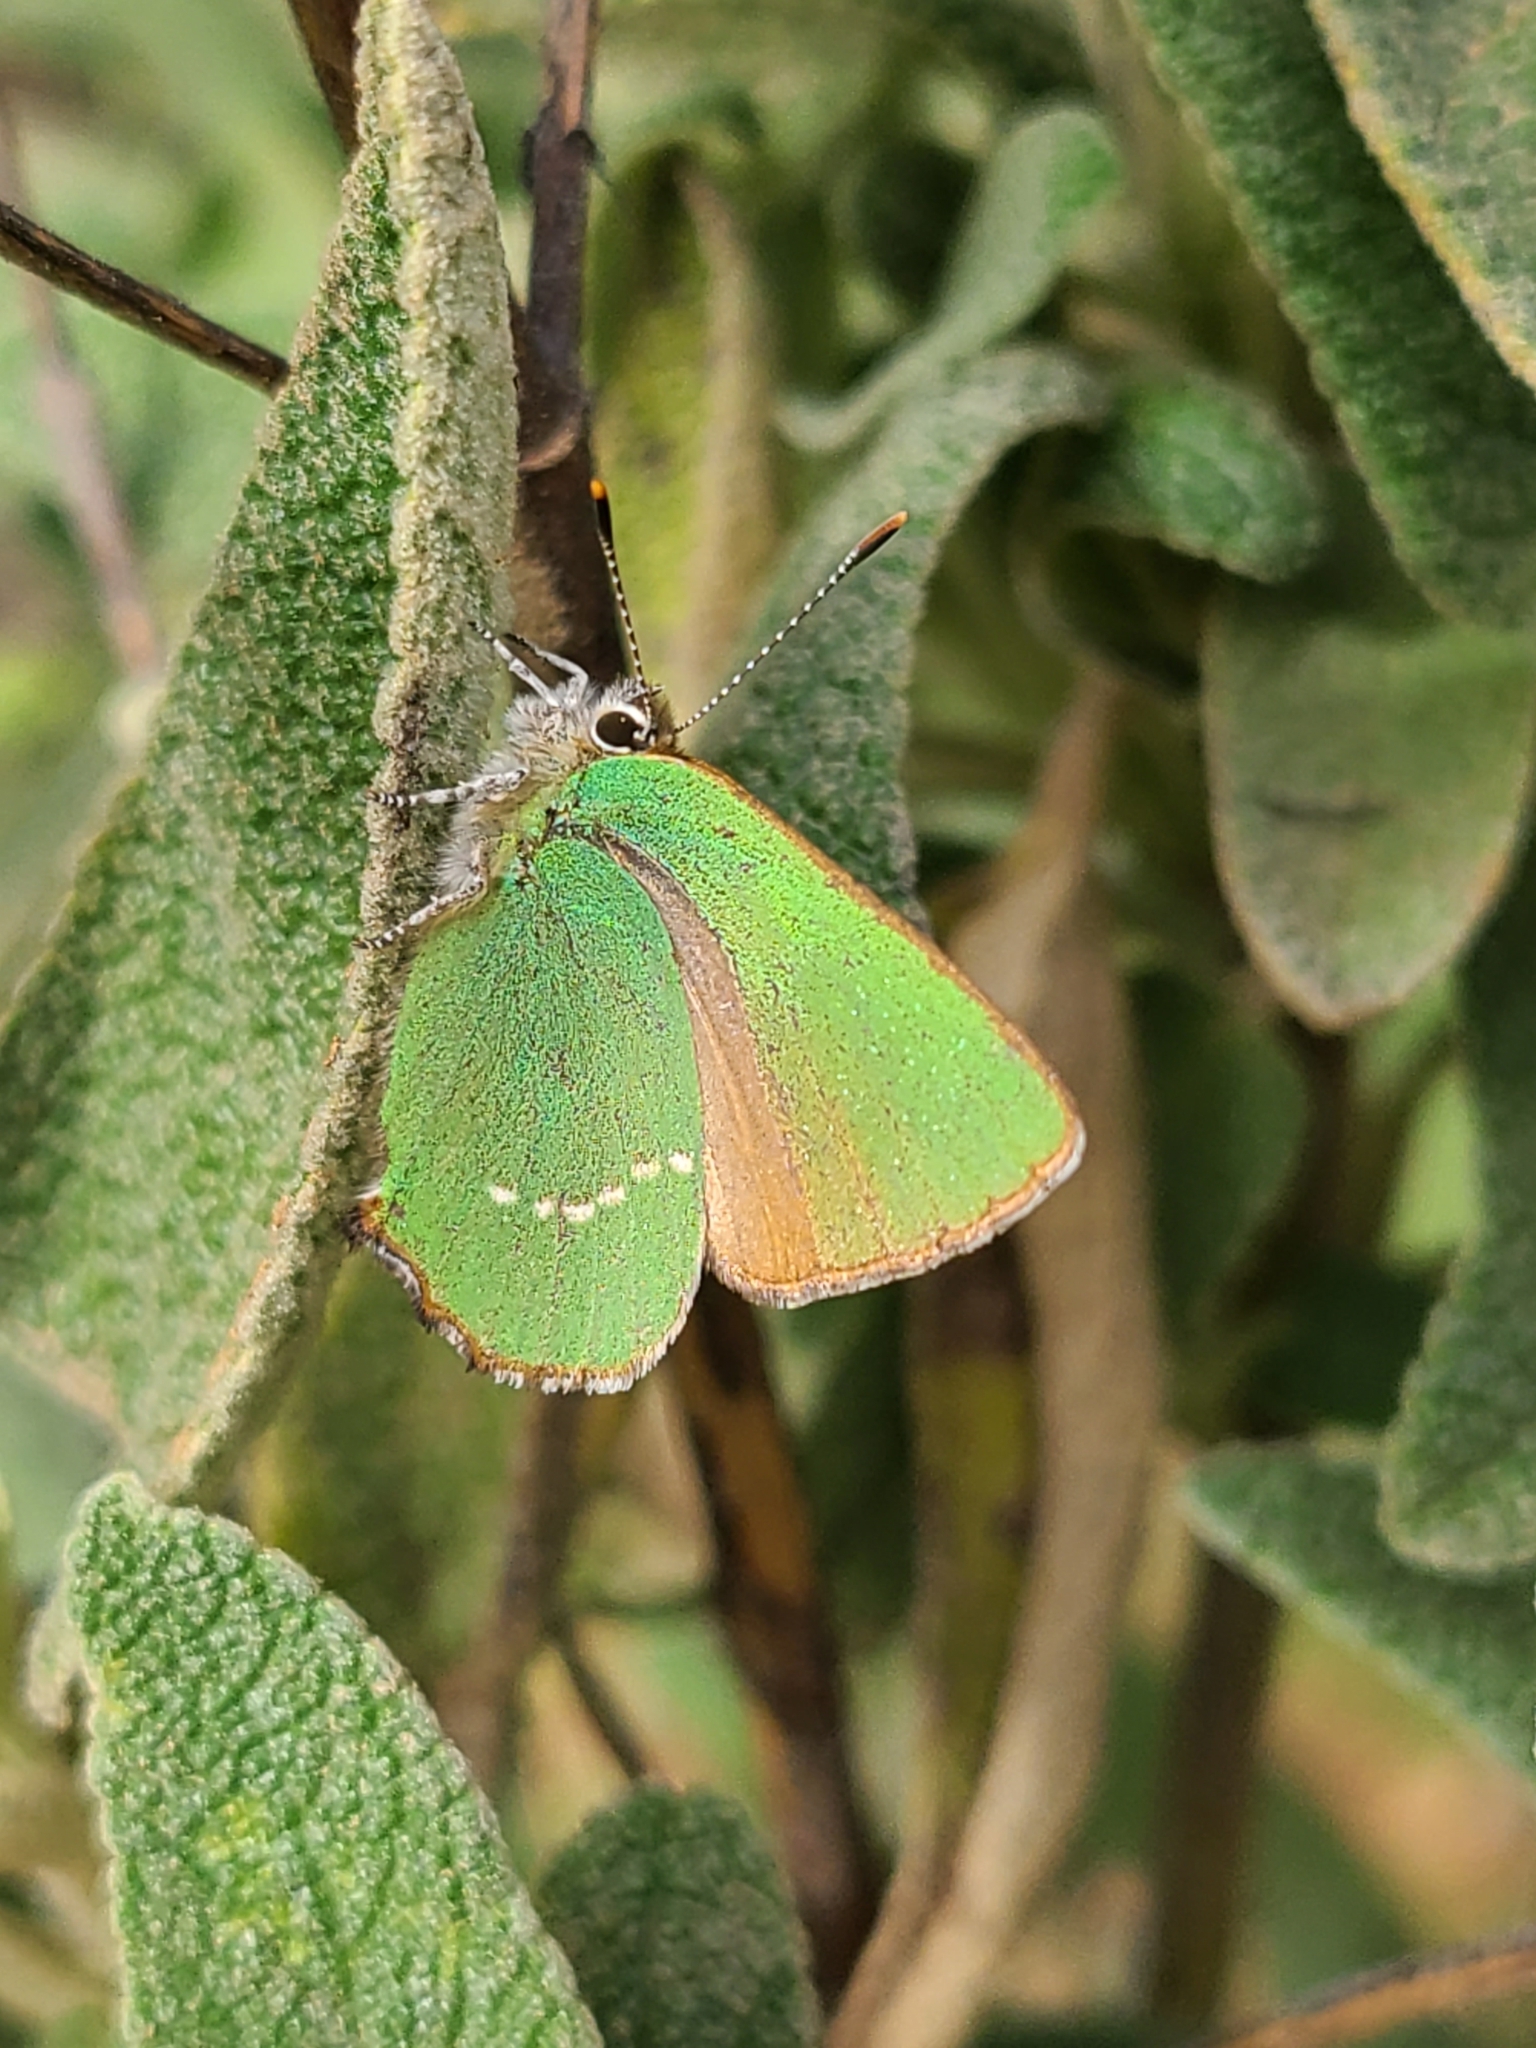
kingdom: Animalia
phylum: Arthropoda
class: Insecta
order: Lepidoptera
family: Lycaenidae
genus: Callophrys
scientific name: Callophrys rubi
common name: Green hairstreak
